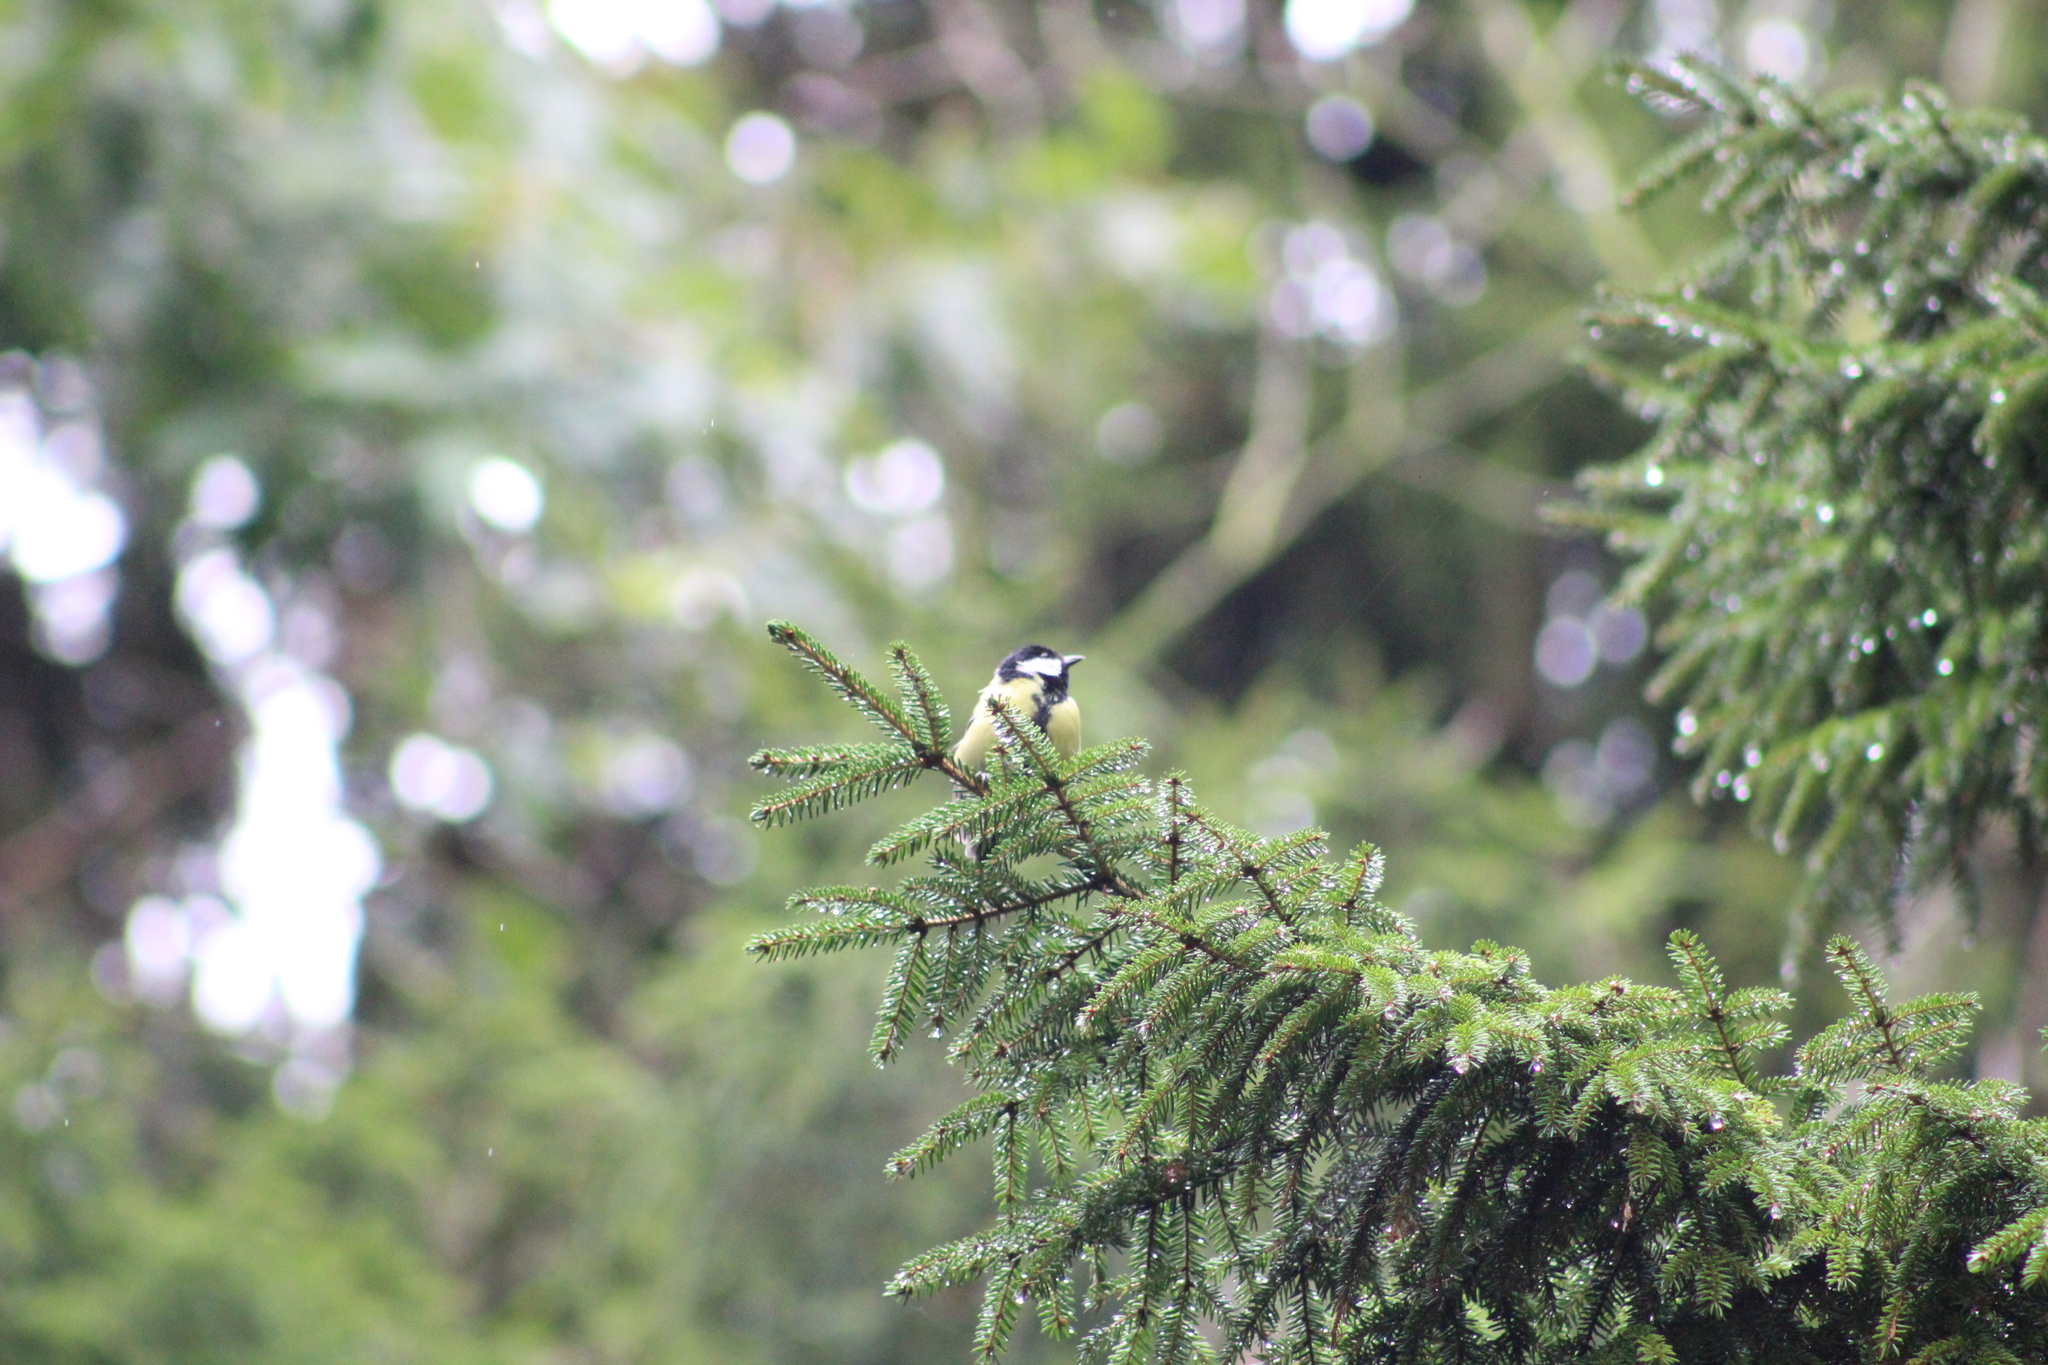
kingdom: Animalia
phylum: Chordata
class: Aves
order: Passeriformes
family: Paridae
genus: Parus
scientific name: Parus major
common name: Great tit
